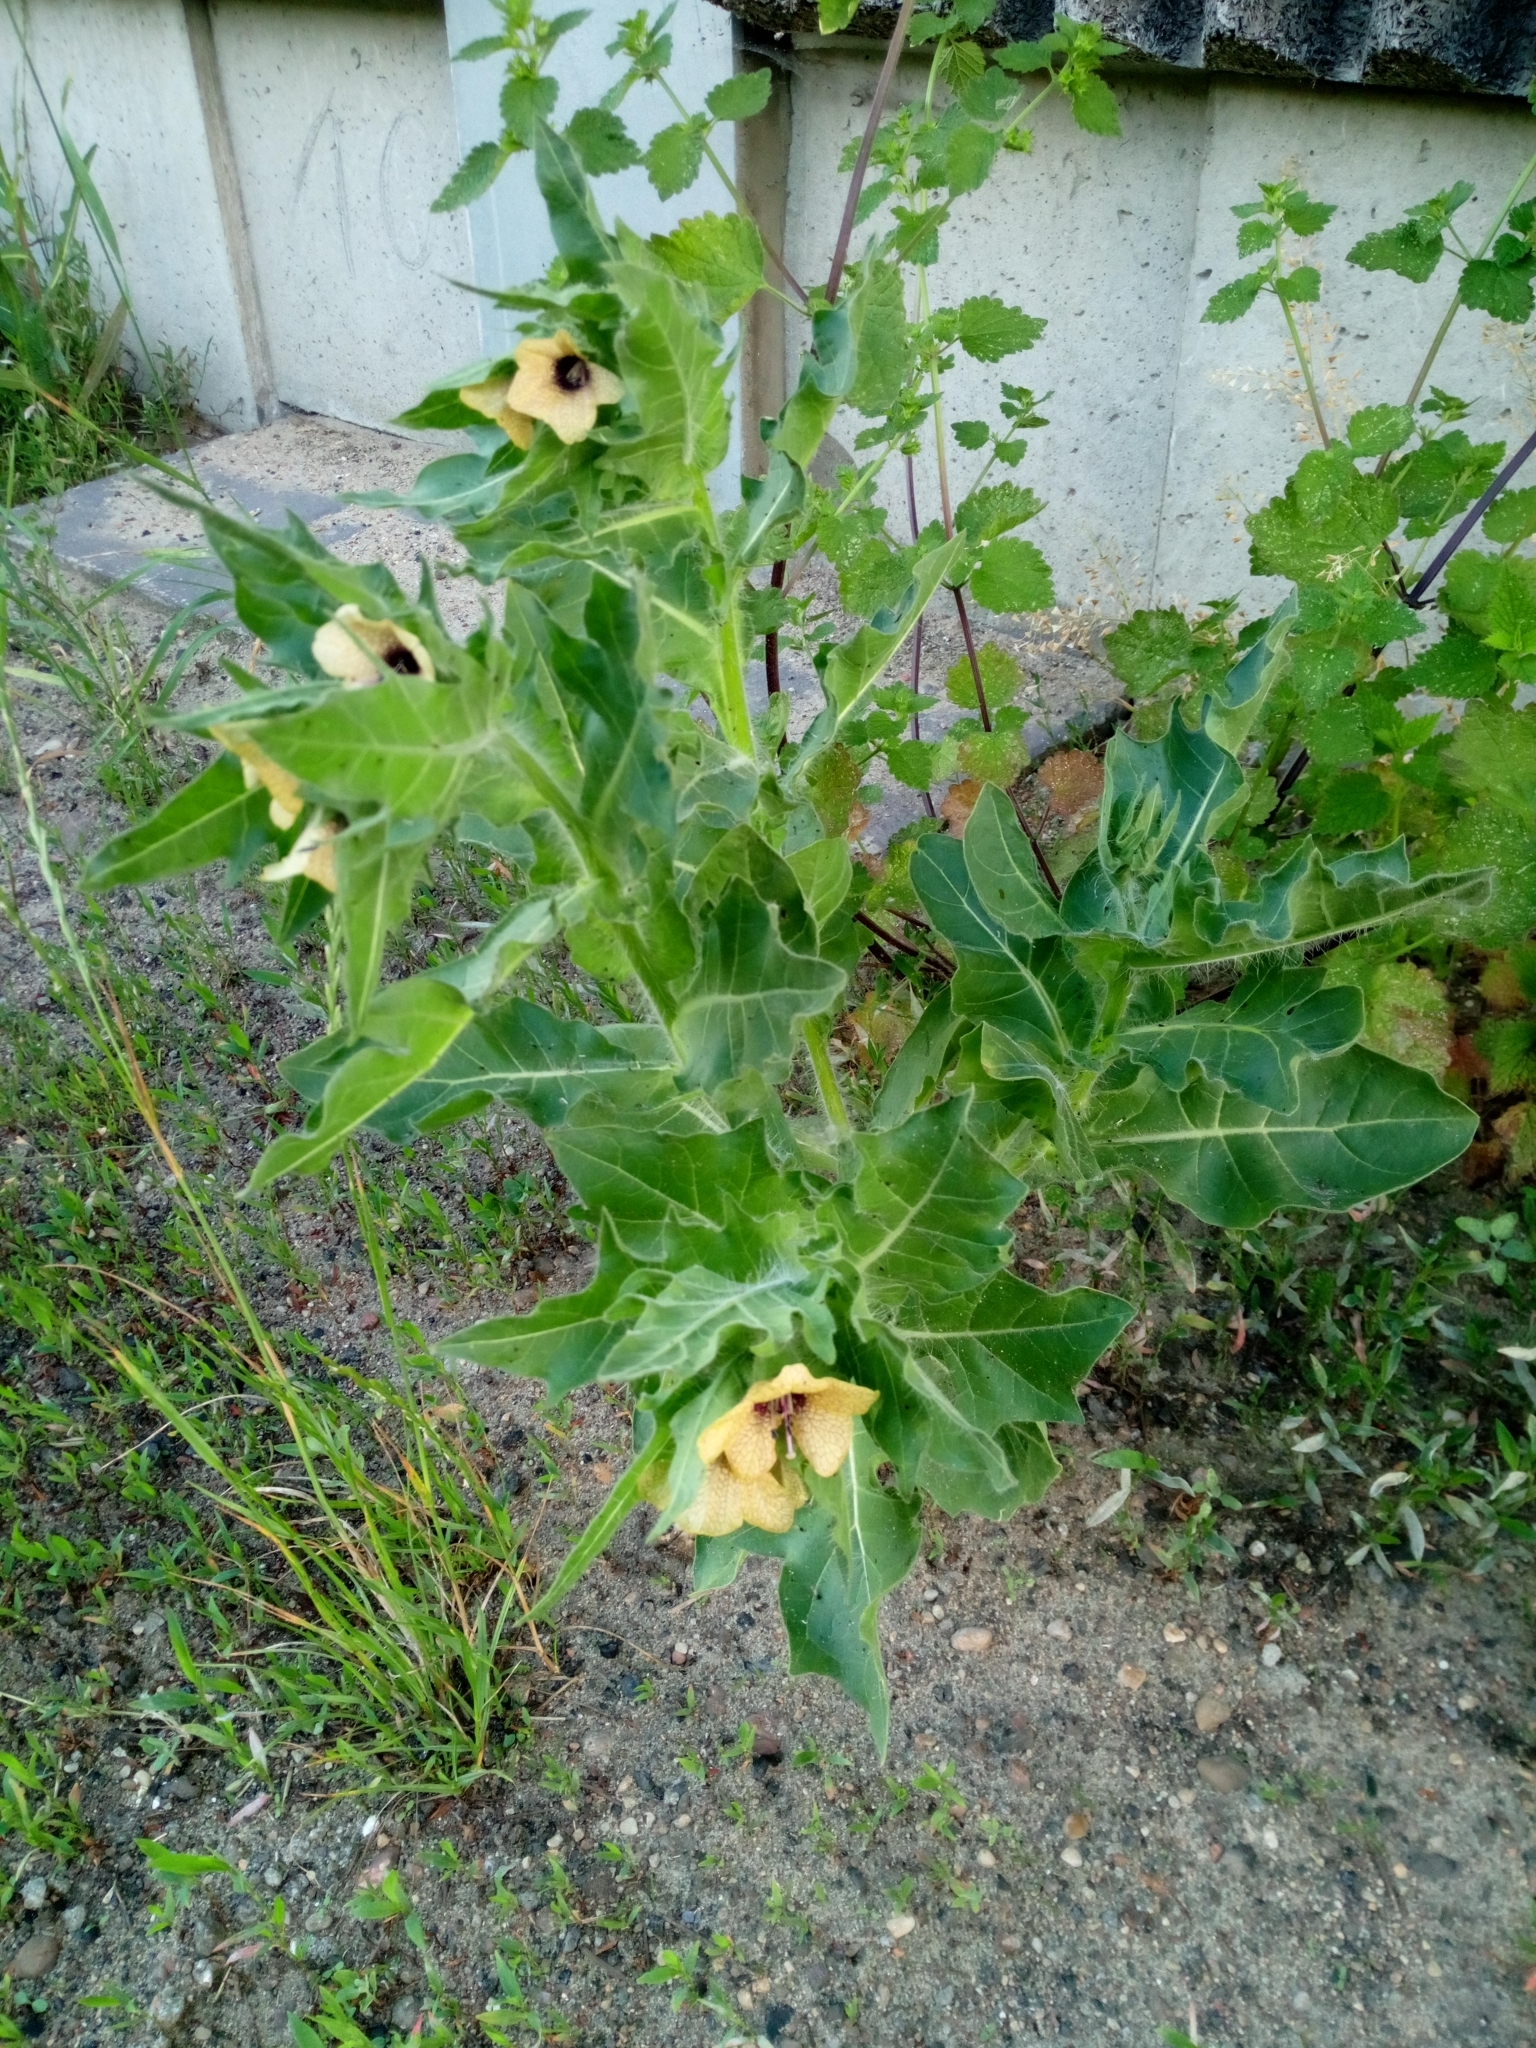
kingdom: Plantae
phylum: Tracheophyta
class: Magnoliopsida
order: Solanales
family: Solanaceae
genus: Hyoscyamus
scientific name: Hyoscyamus niger
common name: Henbane
